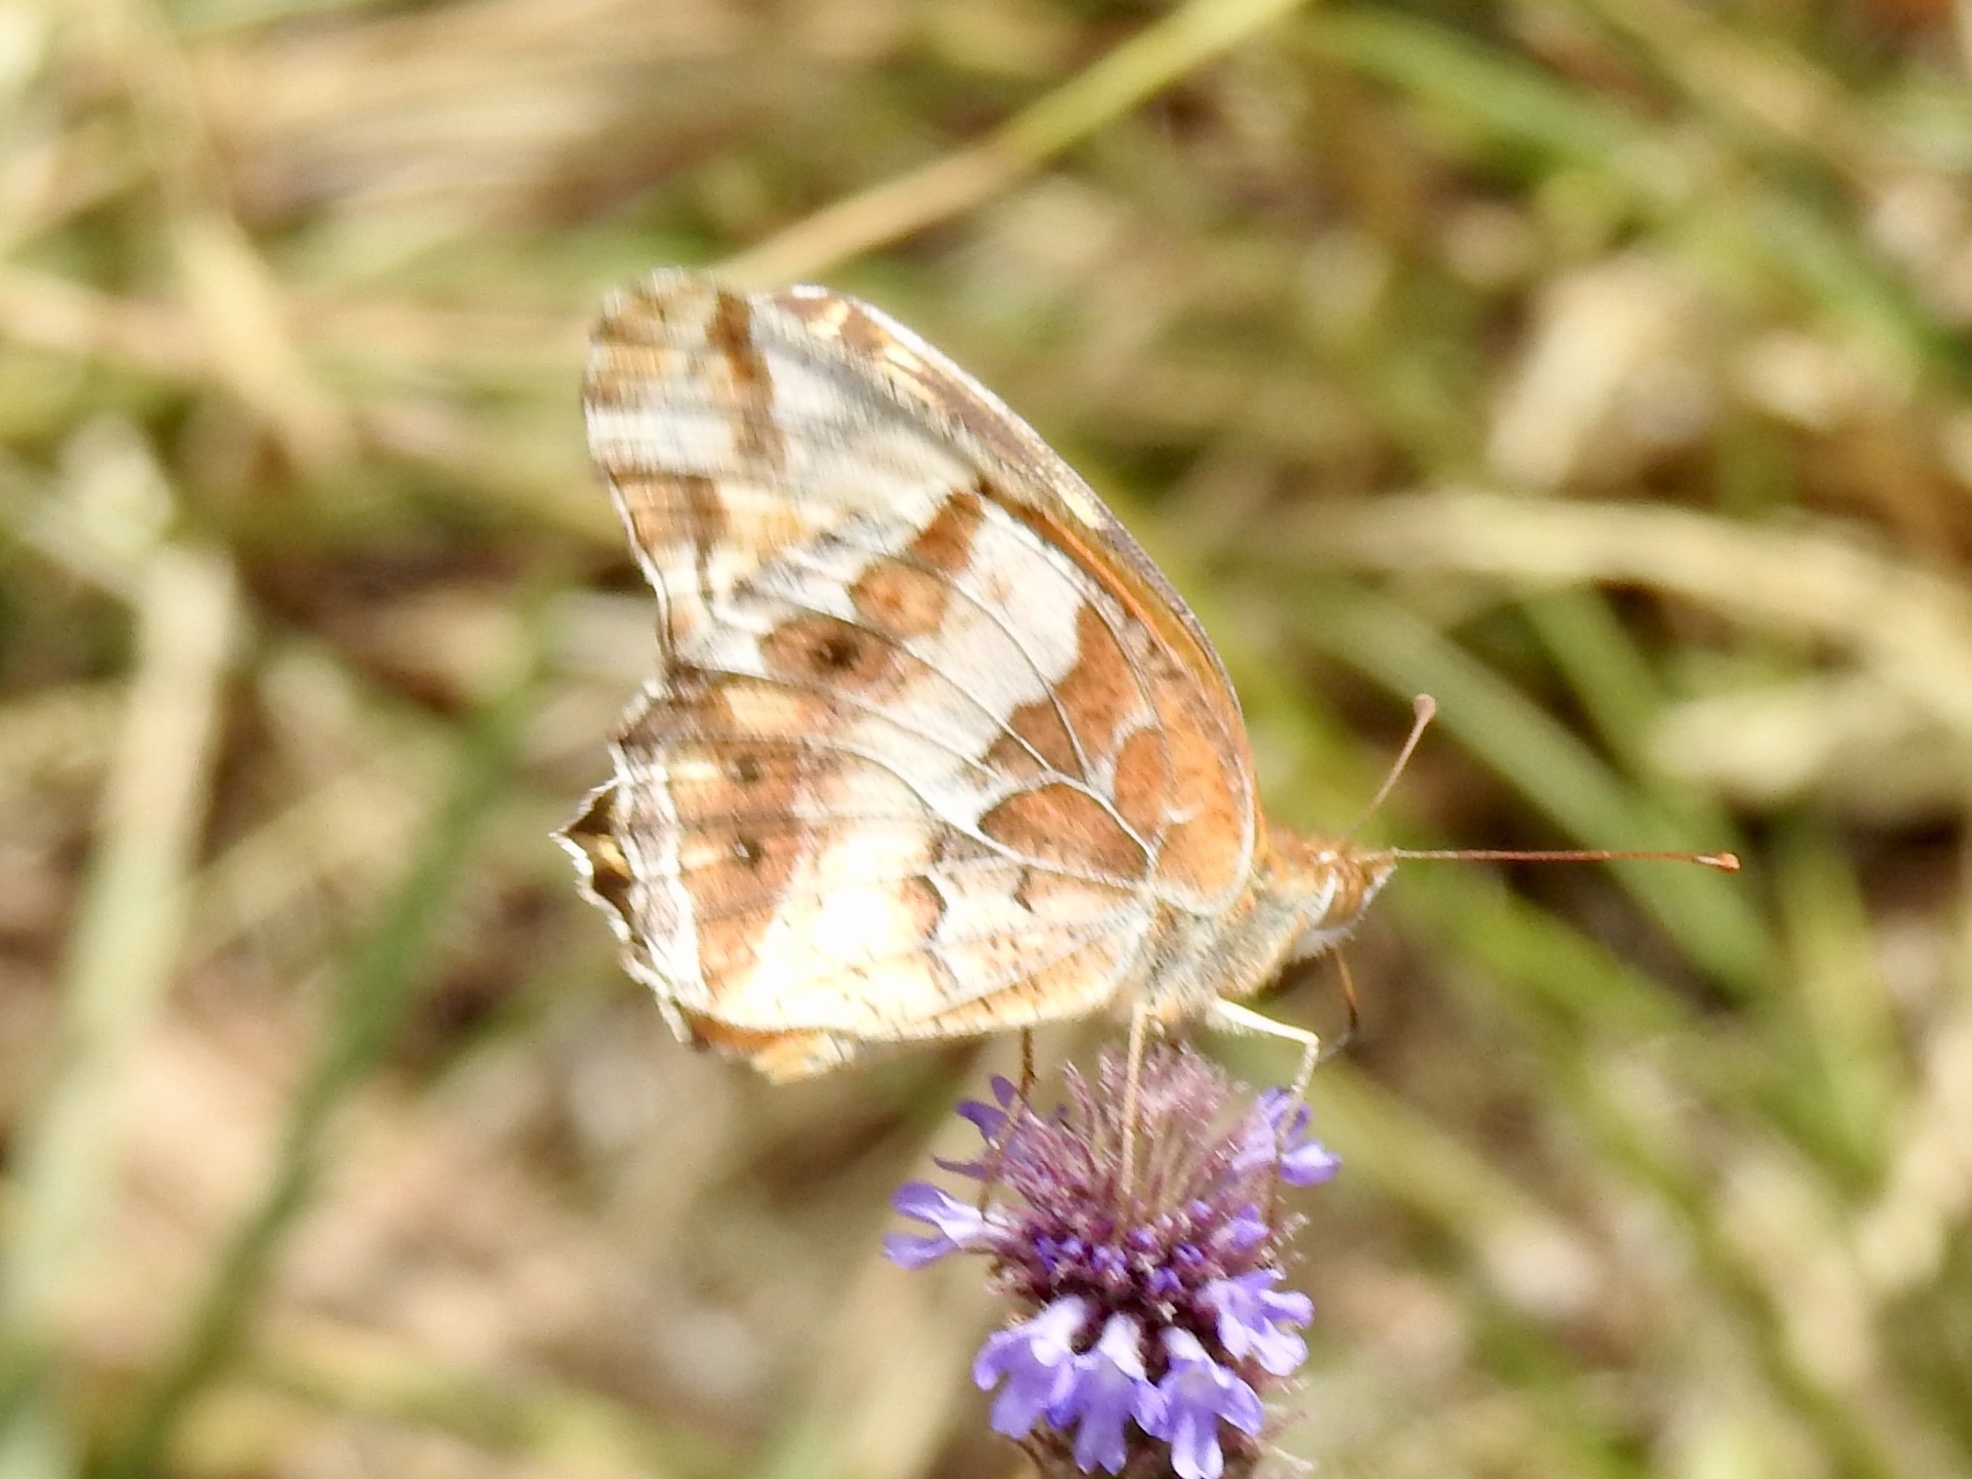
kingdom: Animalia
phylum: Arthropoda
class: Insecta
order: Lepidoptera
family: Nymphalidae
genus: Euptoieta
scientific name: Euptoieta claudia
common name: Variegated fritillary
